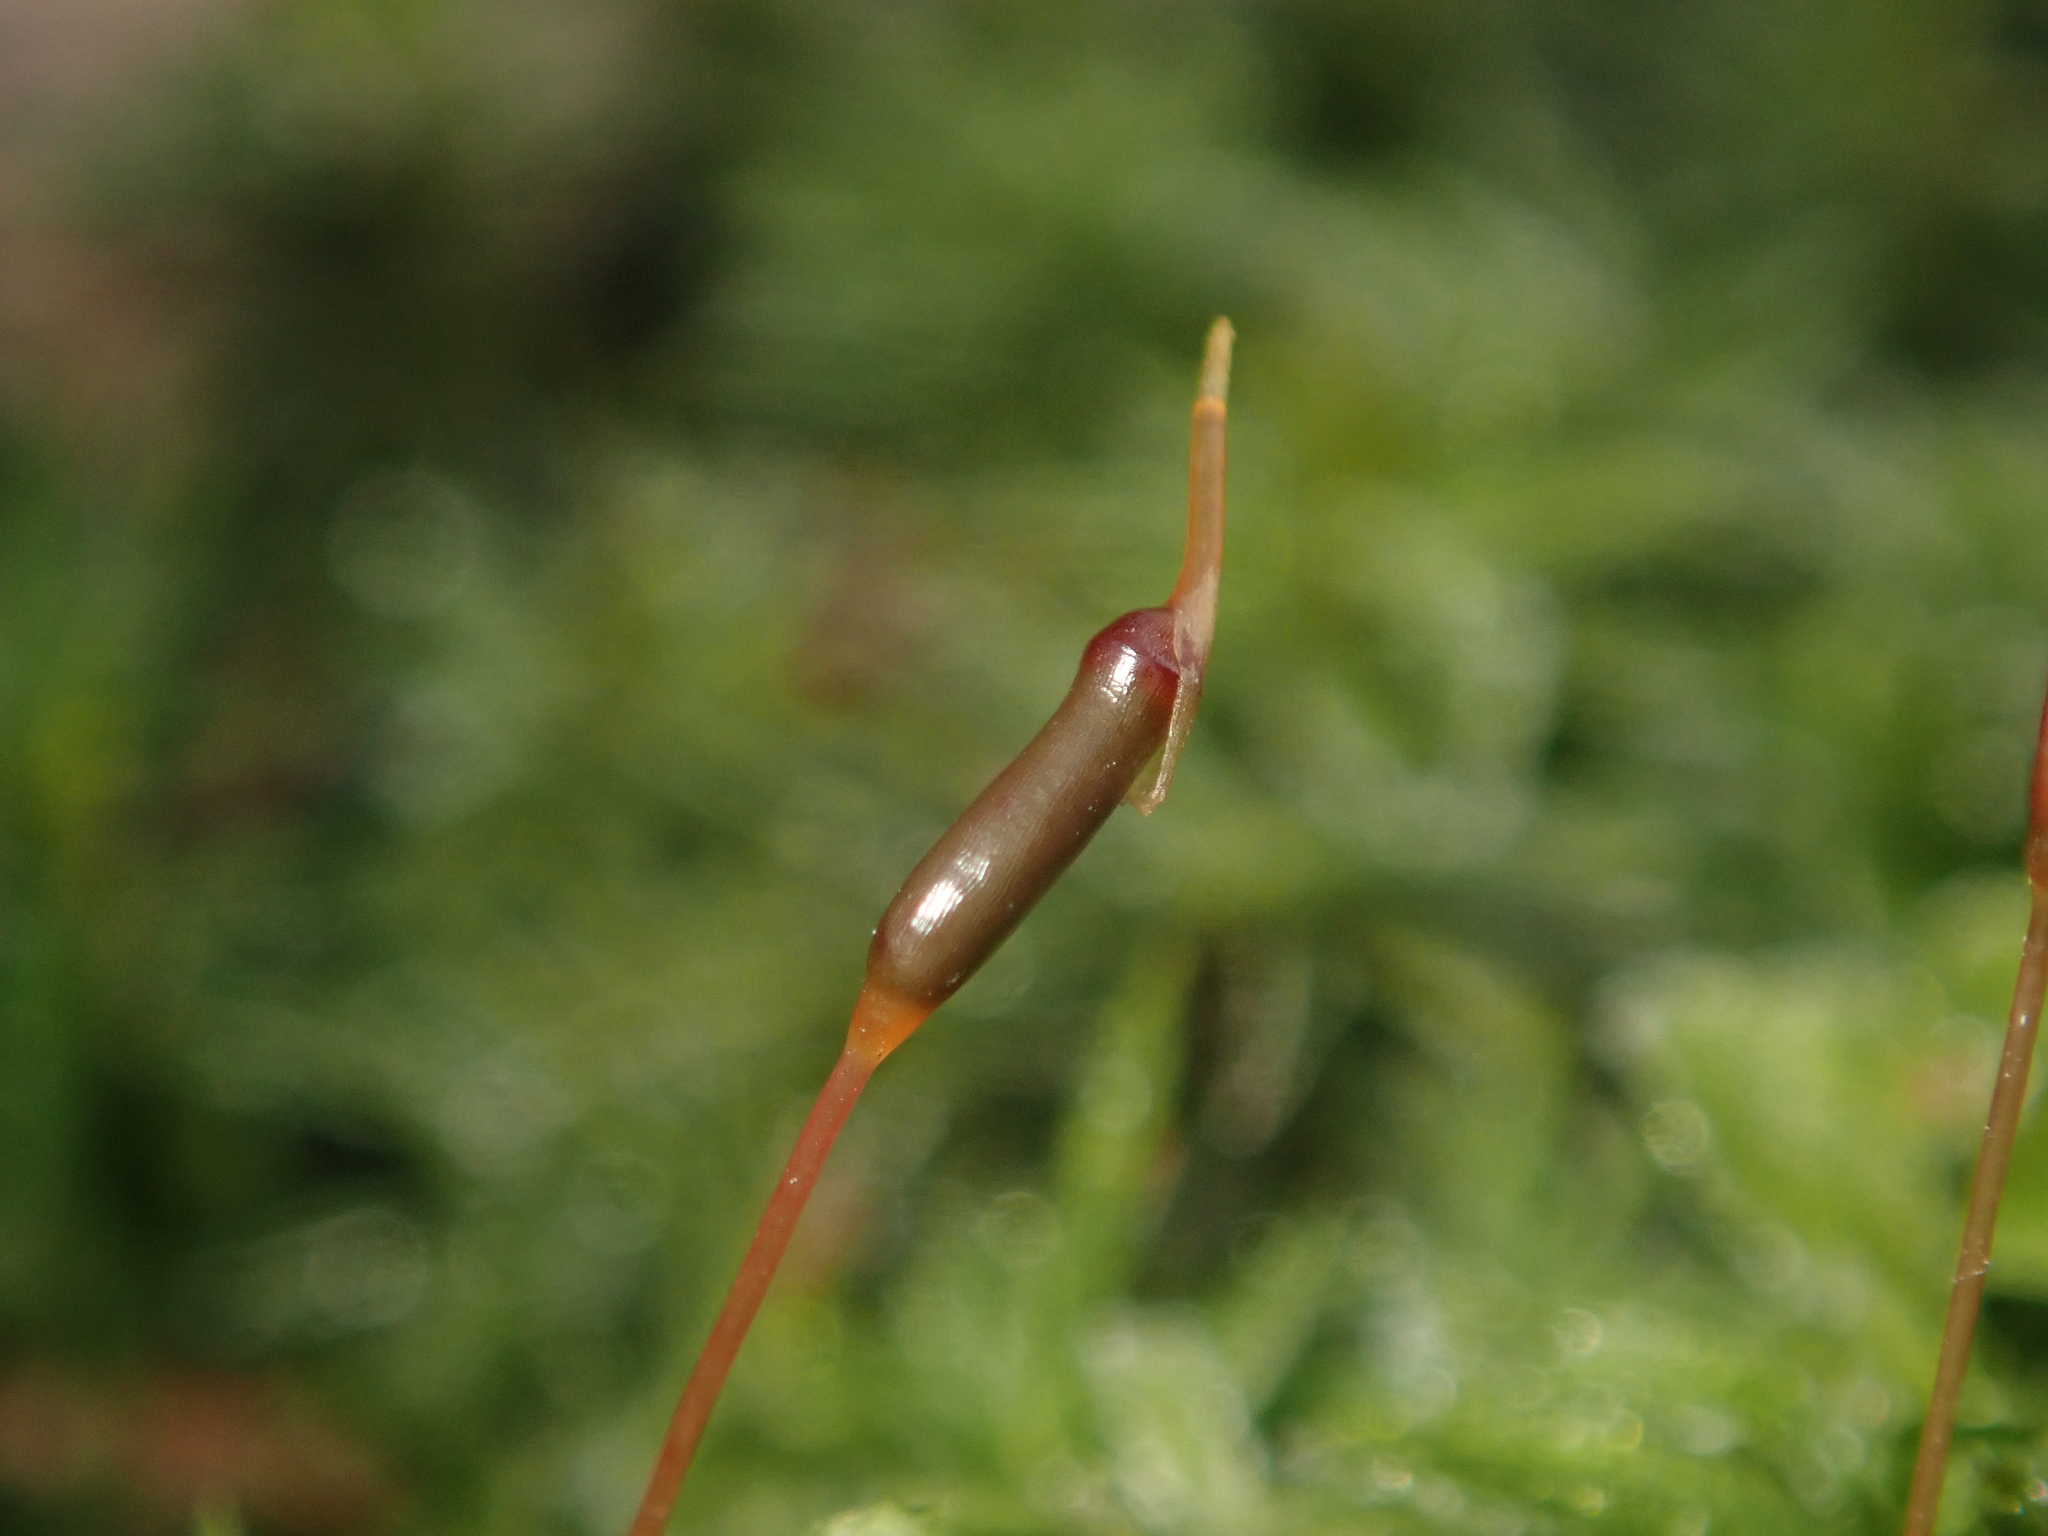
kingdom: Plantae
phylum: Bryophyta
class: Polytrichopsida
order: Polytrichales
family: Polytrichaceae
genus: Atrichum
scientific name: Atrichum undulatum
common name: Common smoothcap
